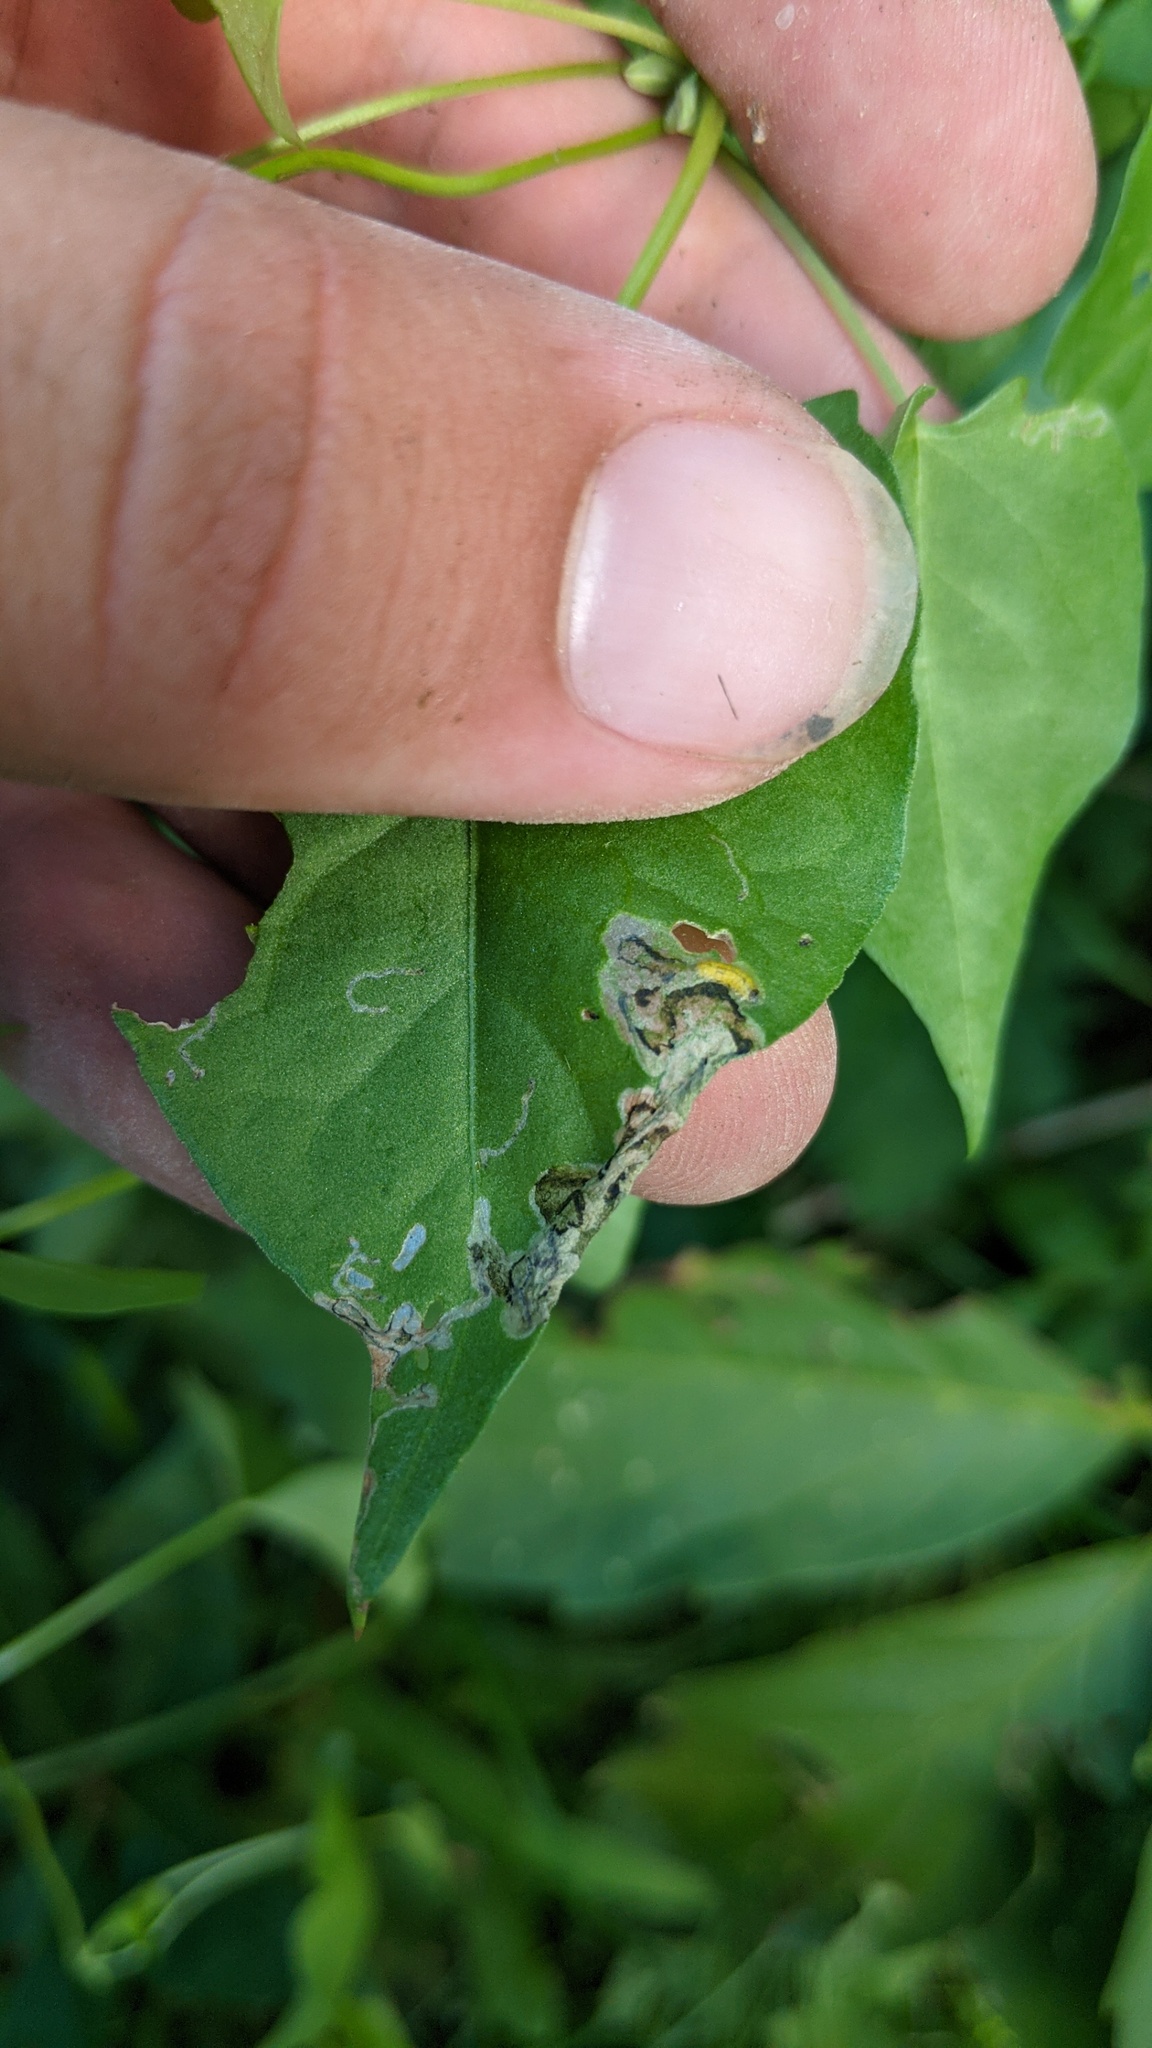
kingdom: Animalia
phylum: Arthropoda
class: Insecta
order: Coleoptera
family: Chrysomelidae
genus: Mantura
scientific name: Mantura floridana
